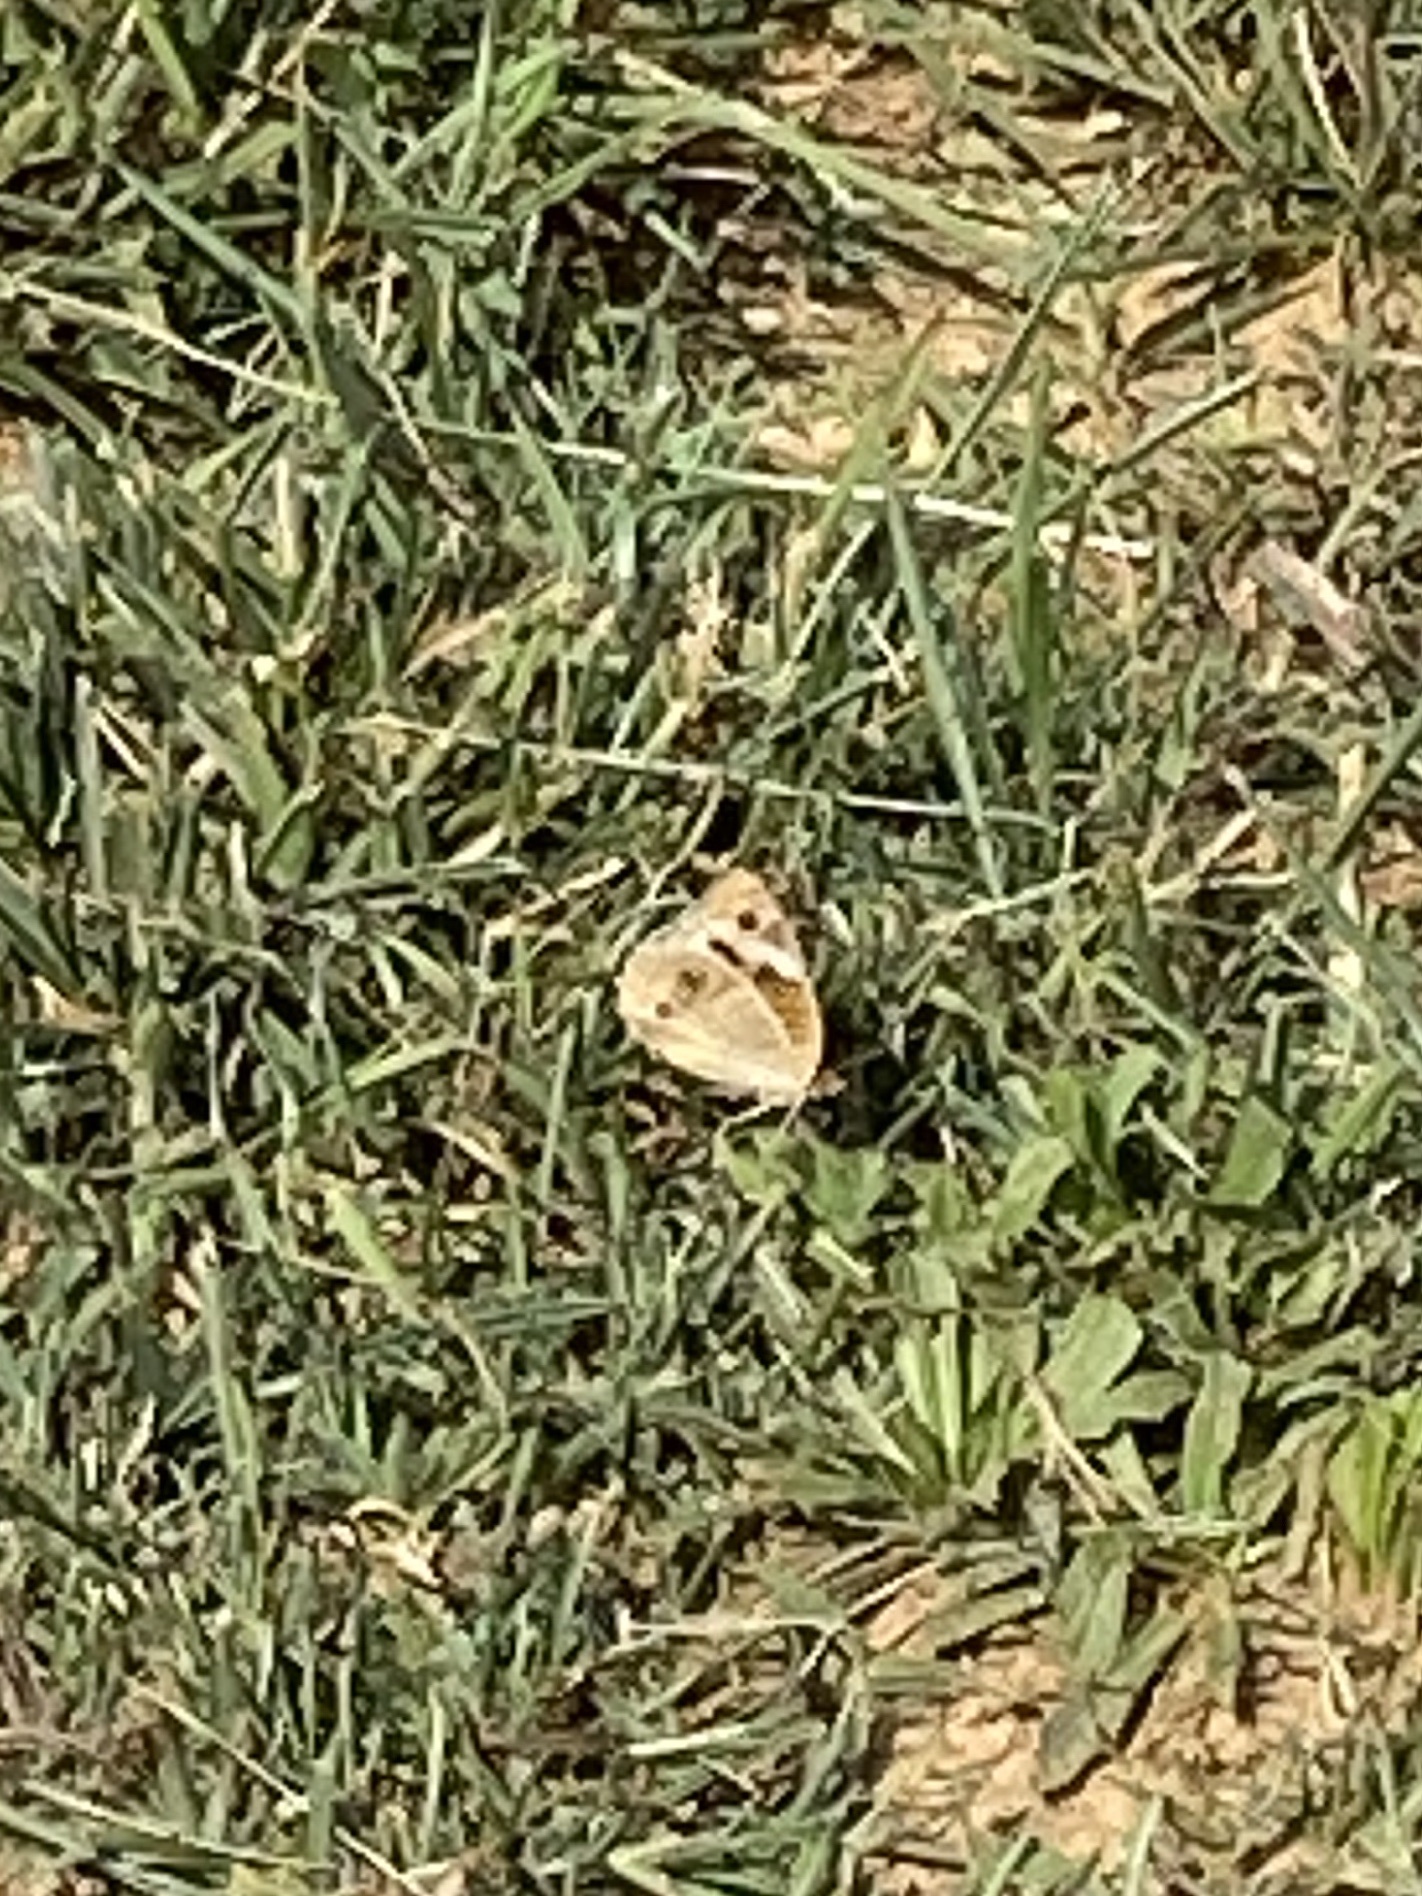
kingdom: Animalia
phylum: Arthropoda
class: Insecta
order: Lepidoptera
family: Nymphalidae
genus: Junonia
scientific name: Junonia coenia
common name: Common buckeye
